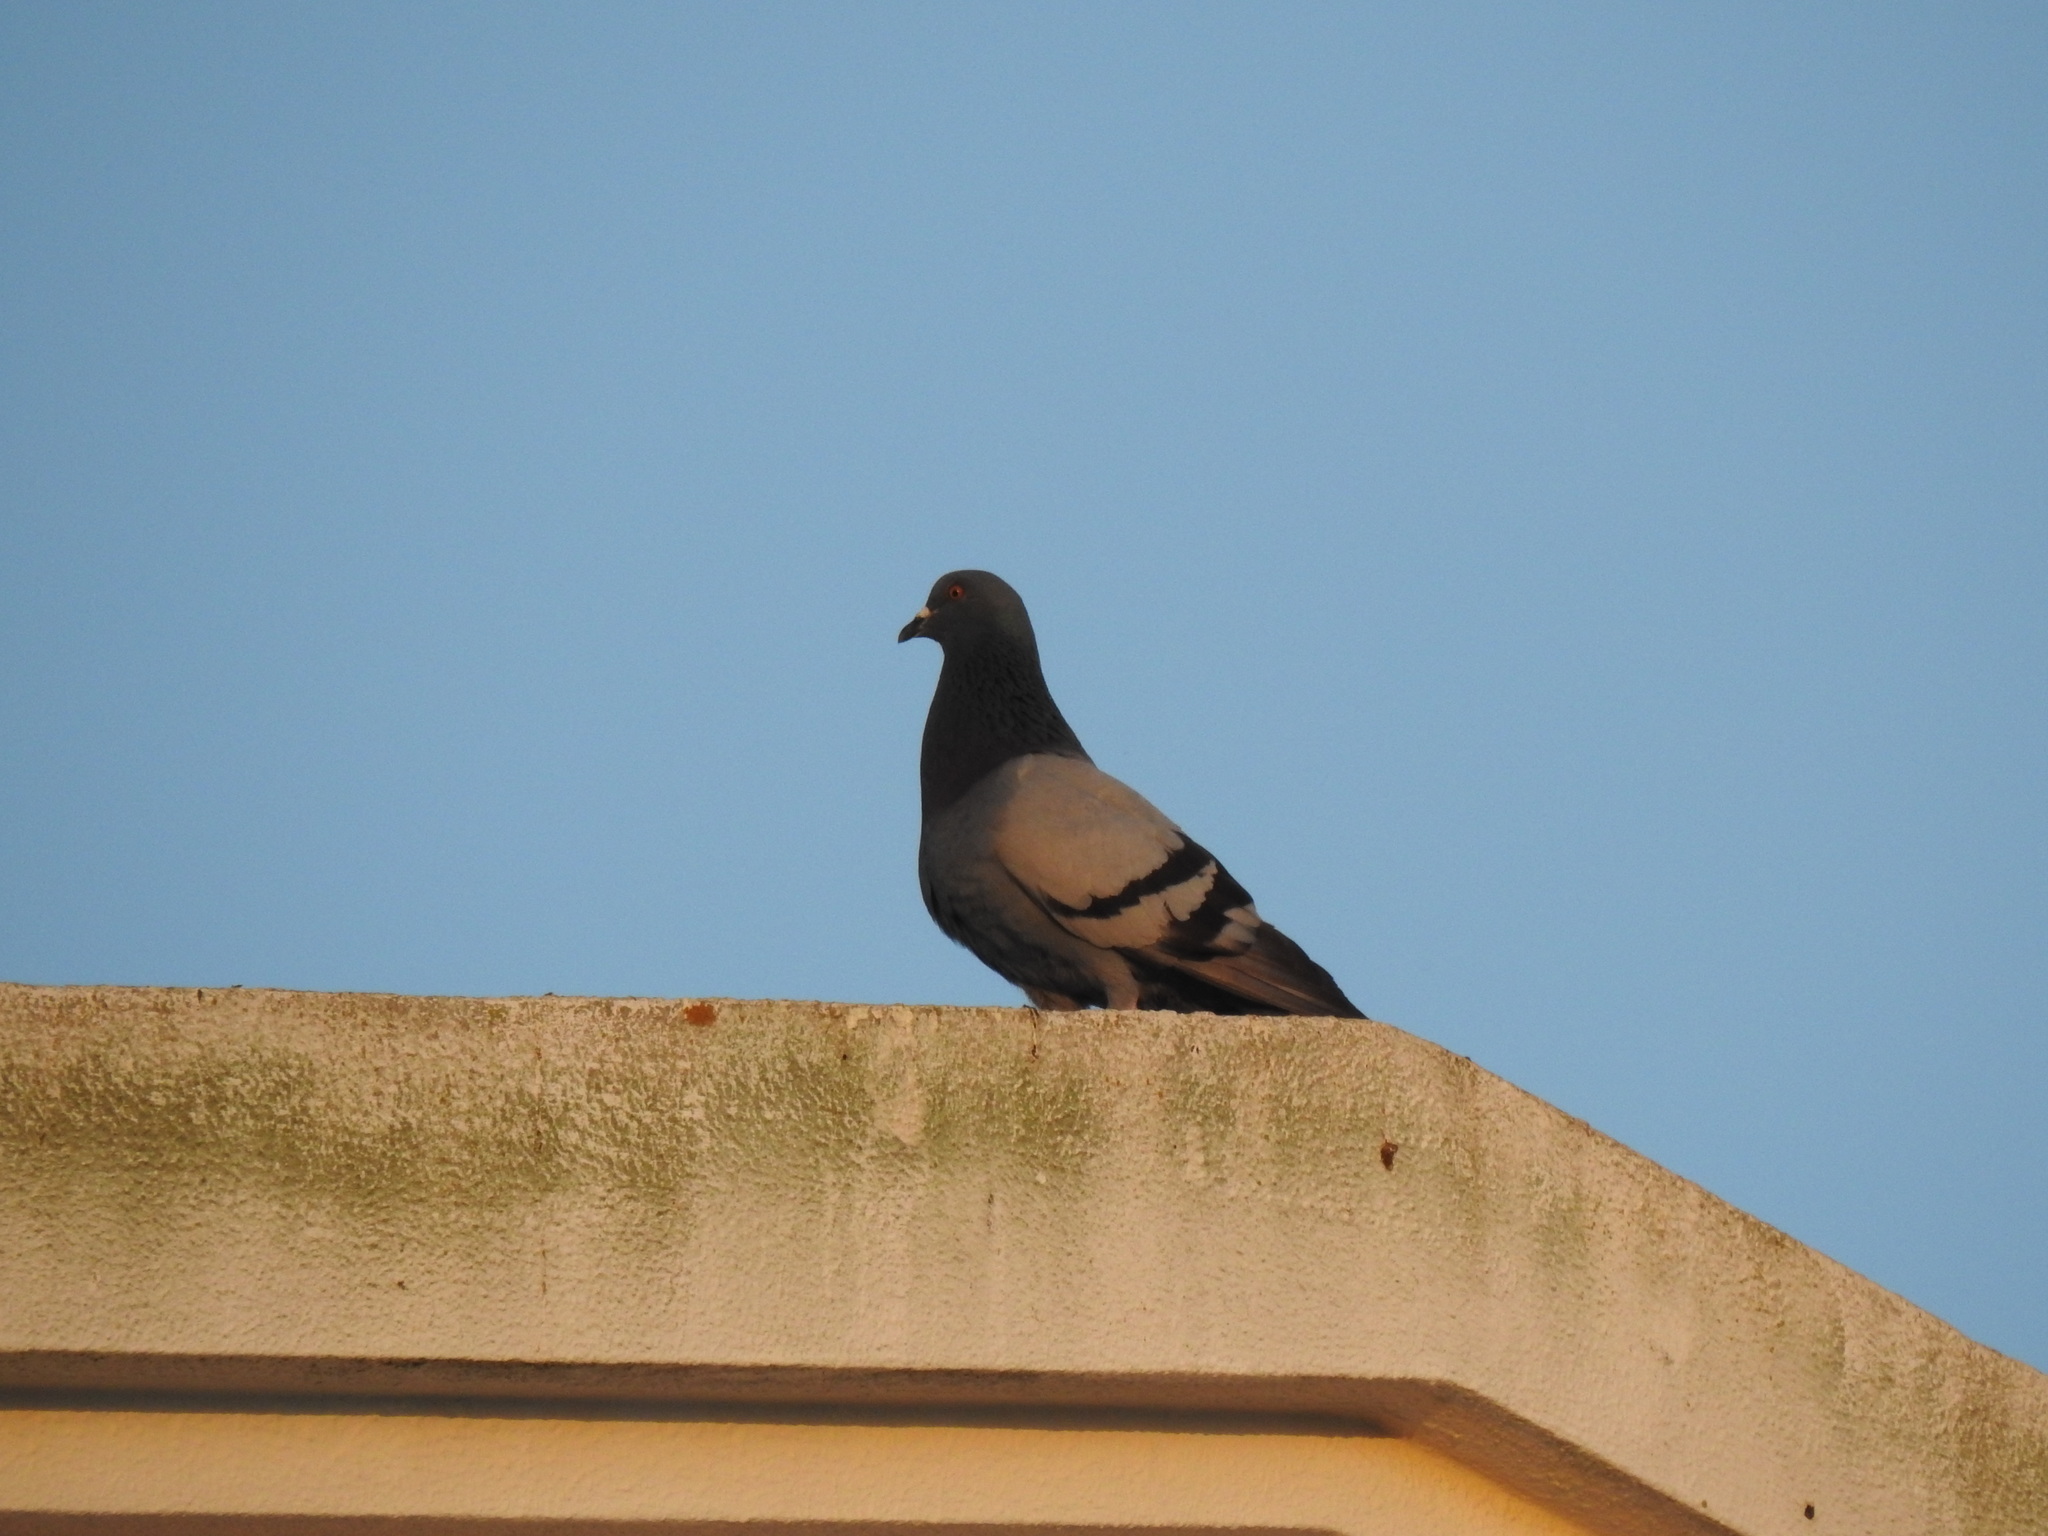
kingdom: Animalia
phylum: Chordata
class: Aves
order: Columbiformes
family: Columbidae
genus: Columba
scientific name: Columba livia
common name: Rock pigeon
